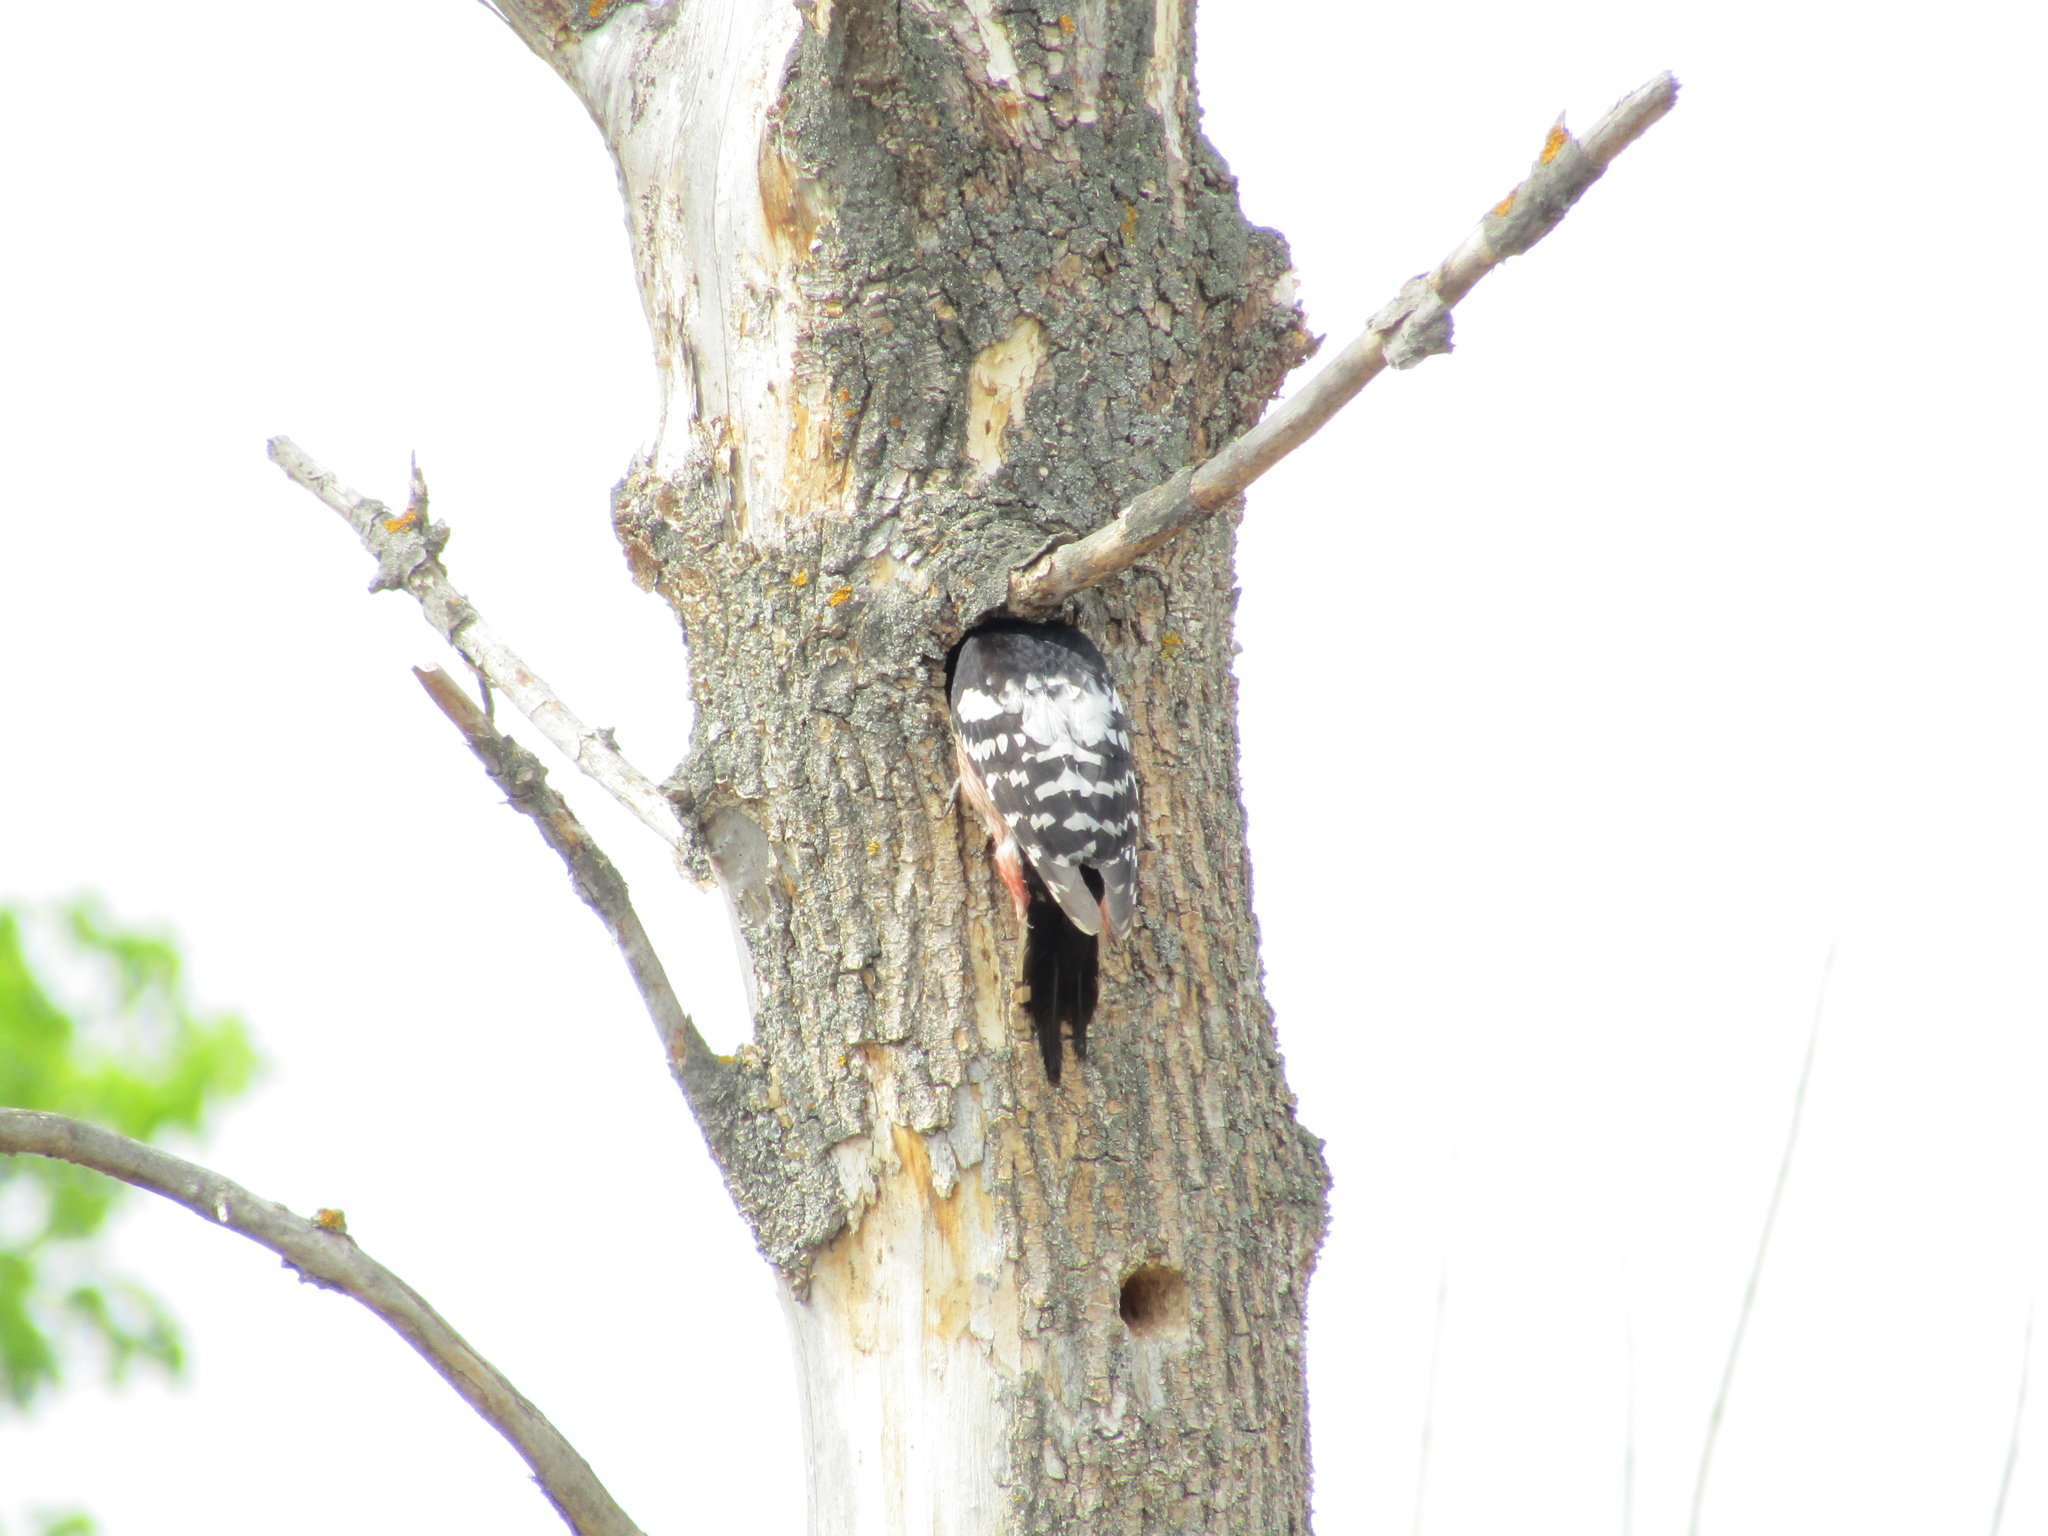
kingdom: Animalia
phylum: Chordata
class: Aves
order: Piciformes
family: Picidae
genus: Dendrocopos
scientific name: Dendrocopos leucotos
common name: White-backed woodpecker
